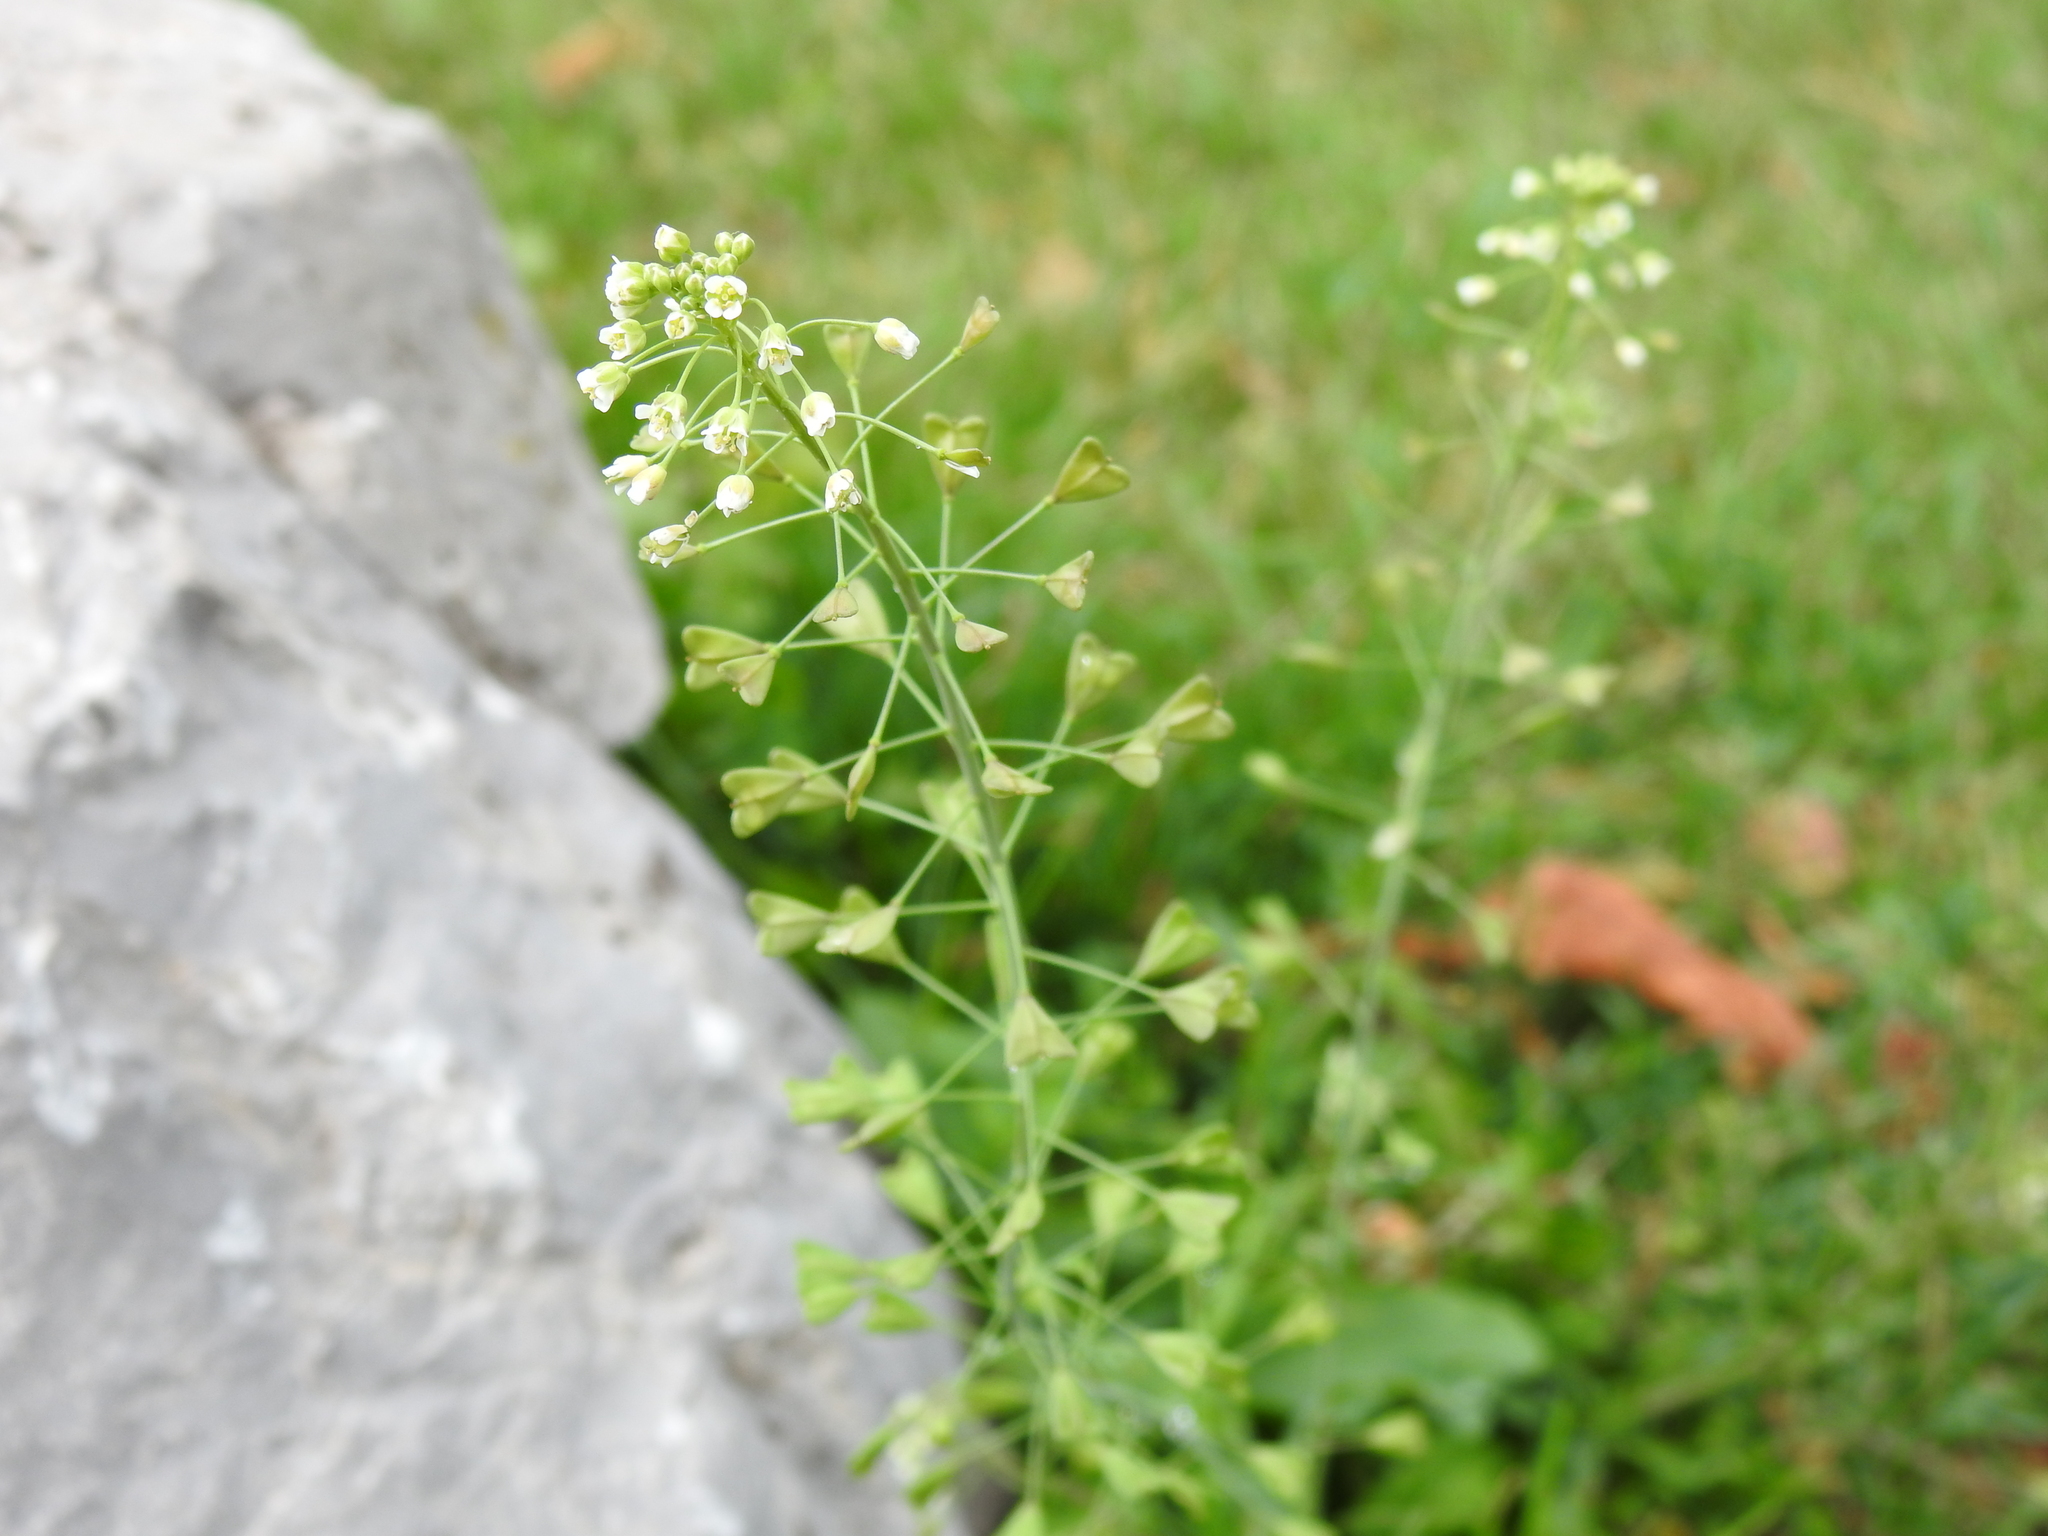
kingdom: Plantae
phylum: Tracheophyta
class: Magnoliopsida
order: Brassicales
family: Brassicaceae
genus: Capsella
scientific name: Capsella bursa-pastoris
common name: Shepherd's purse
